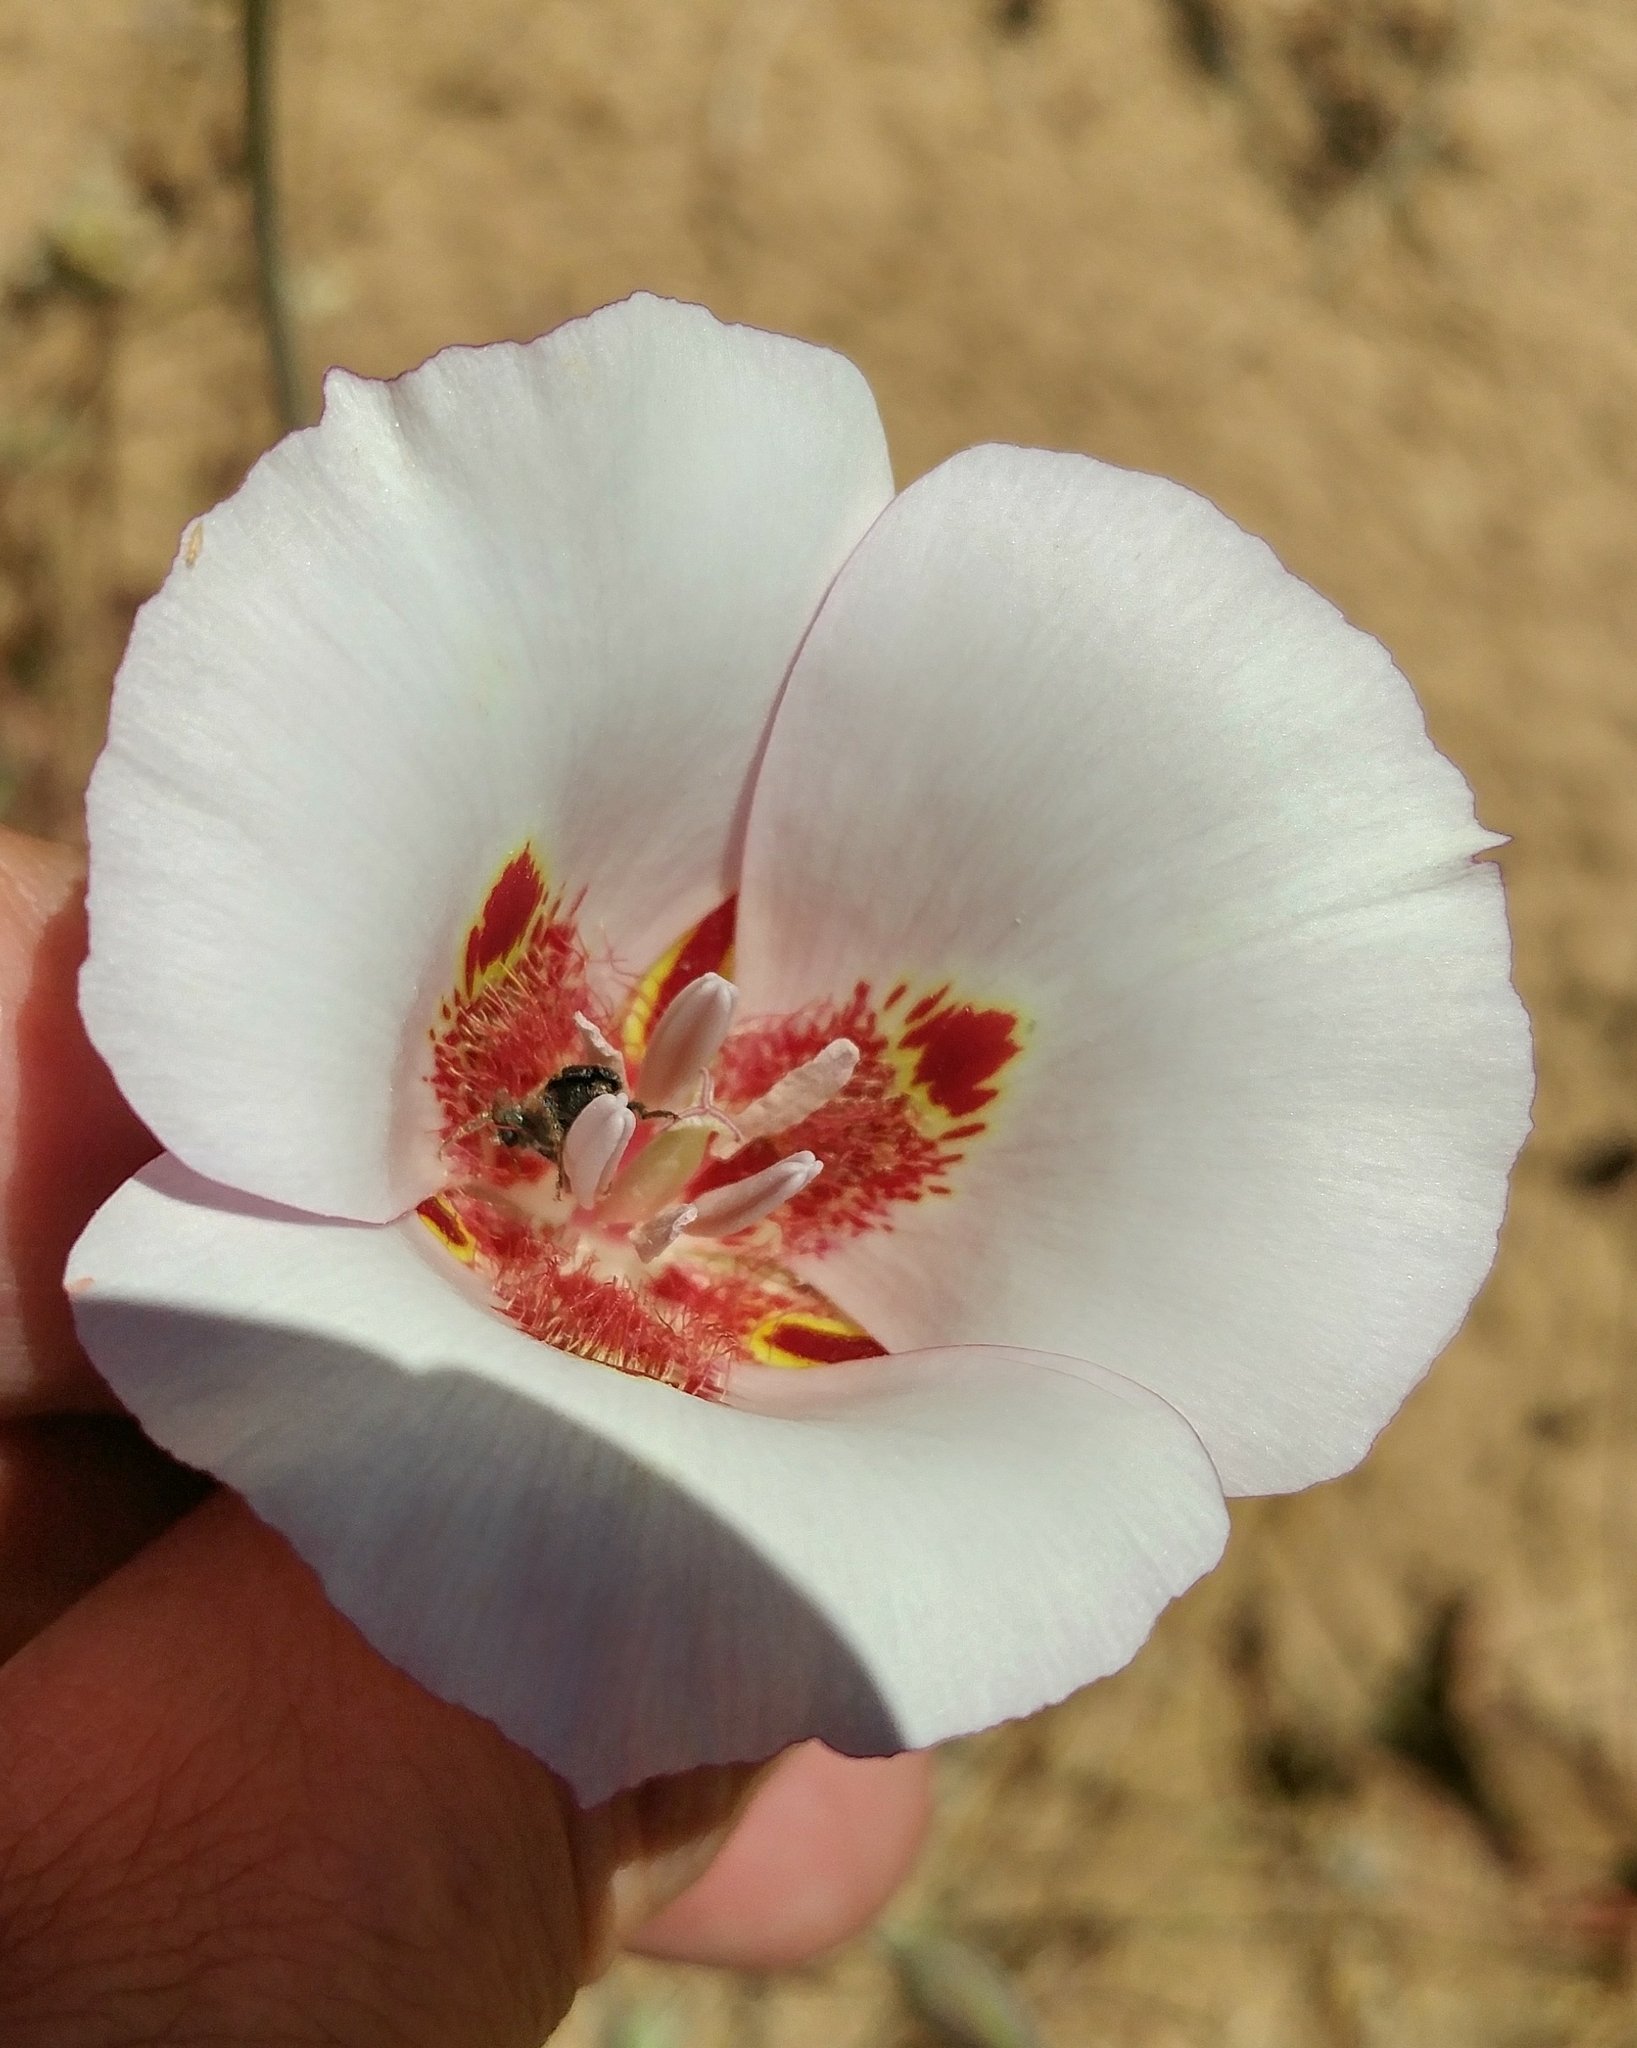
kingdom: Plantae
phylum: Tracheophyta
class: Liliopsida
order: Liliales
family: Liliaceae
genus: Calochortus
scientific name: Calochortus venustus
